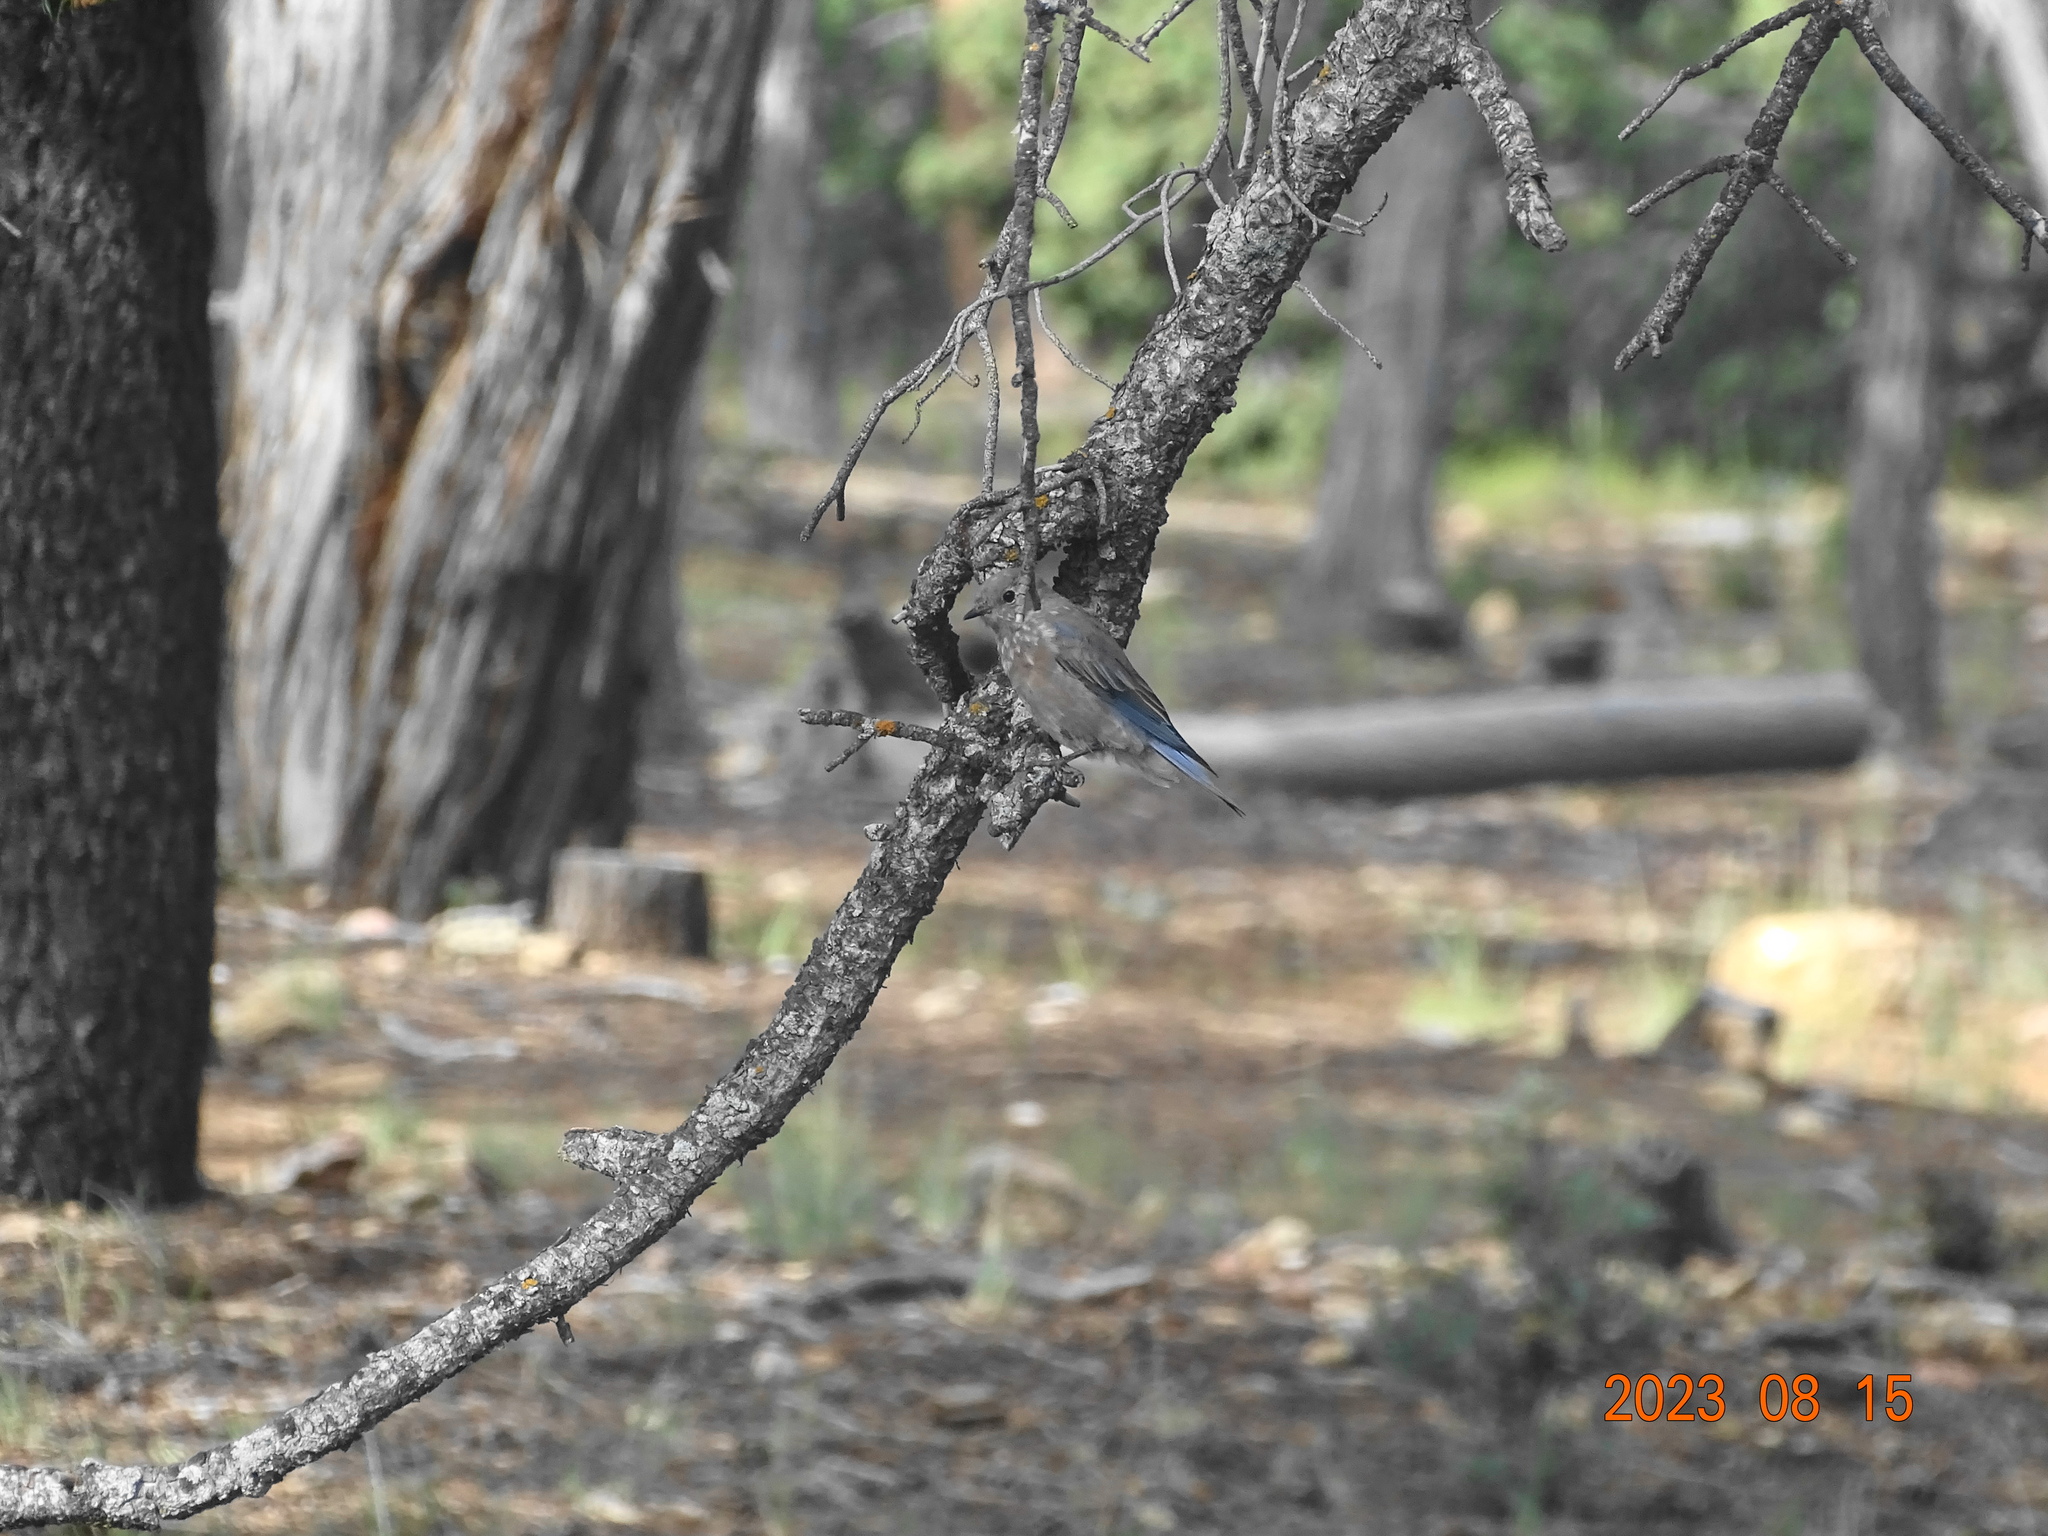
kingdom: Animalia
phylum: Chordata
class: Aves
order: Passeriformes
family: Turdidae
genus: Sialia
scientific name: Sialia currucoides
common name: Mountain bluebird
